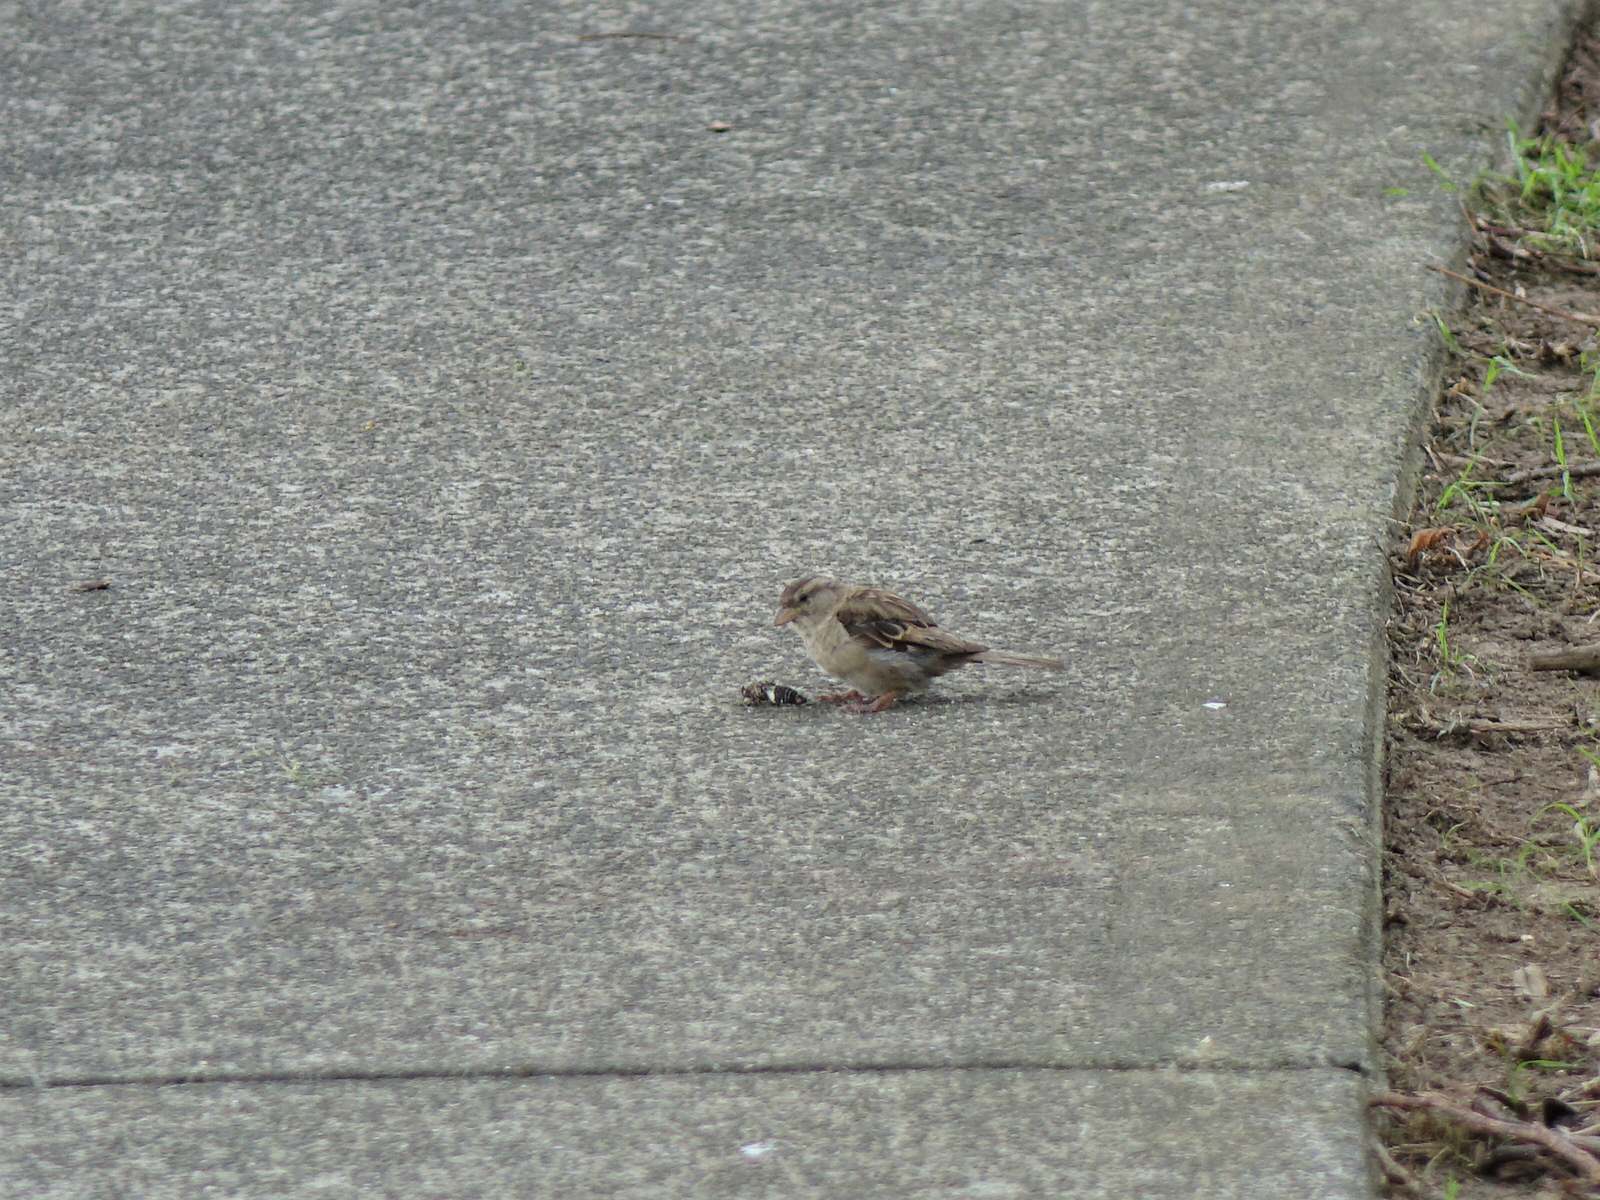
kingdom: Animalia
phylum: Chordata
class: Aves
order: Passeriformes
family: Passeridae
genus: Passer
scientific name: Passer domesticus
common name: House sparrow
